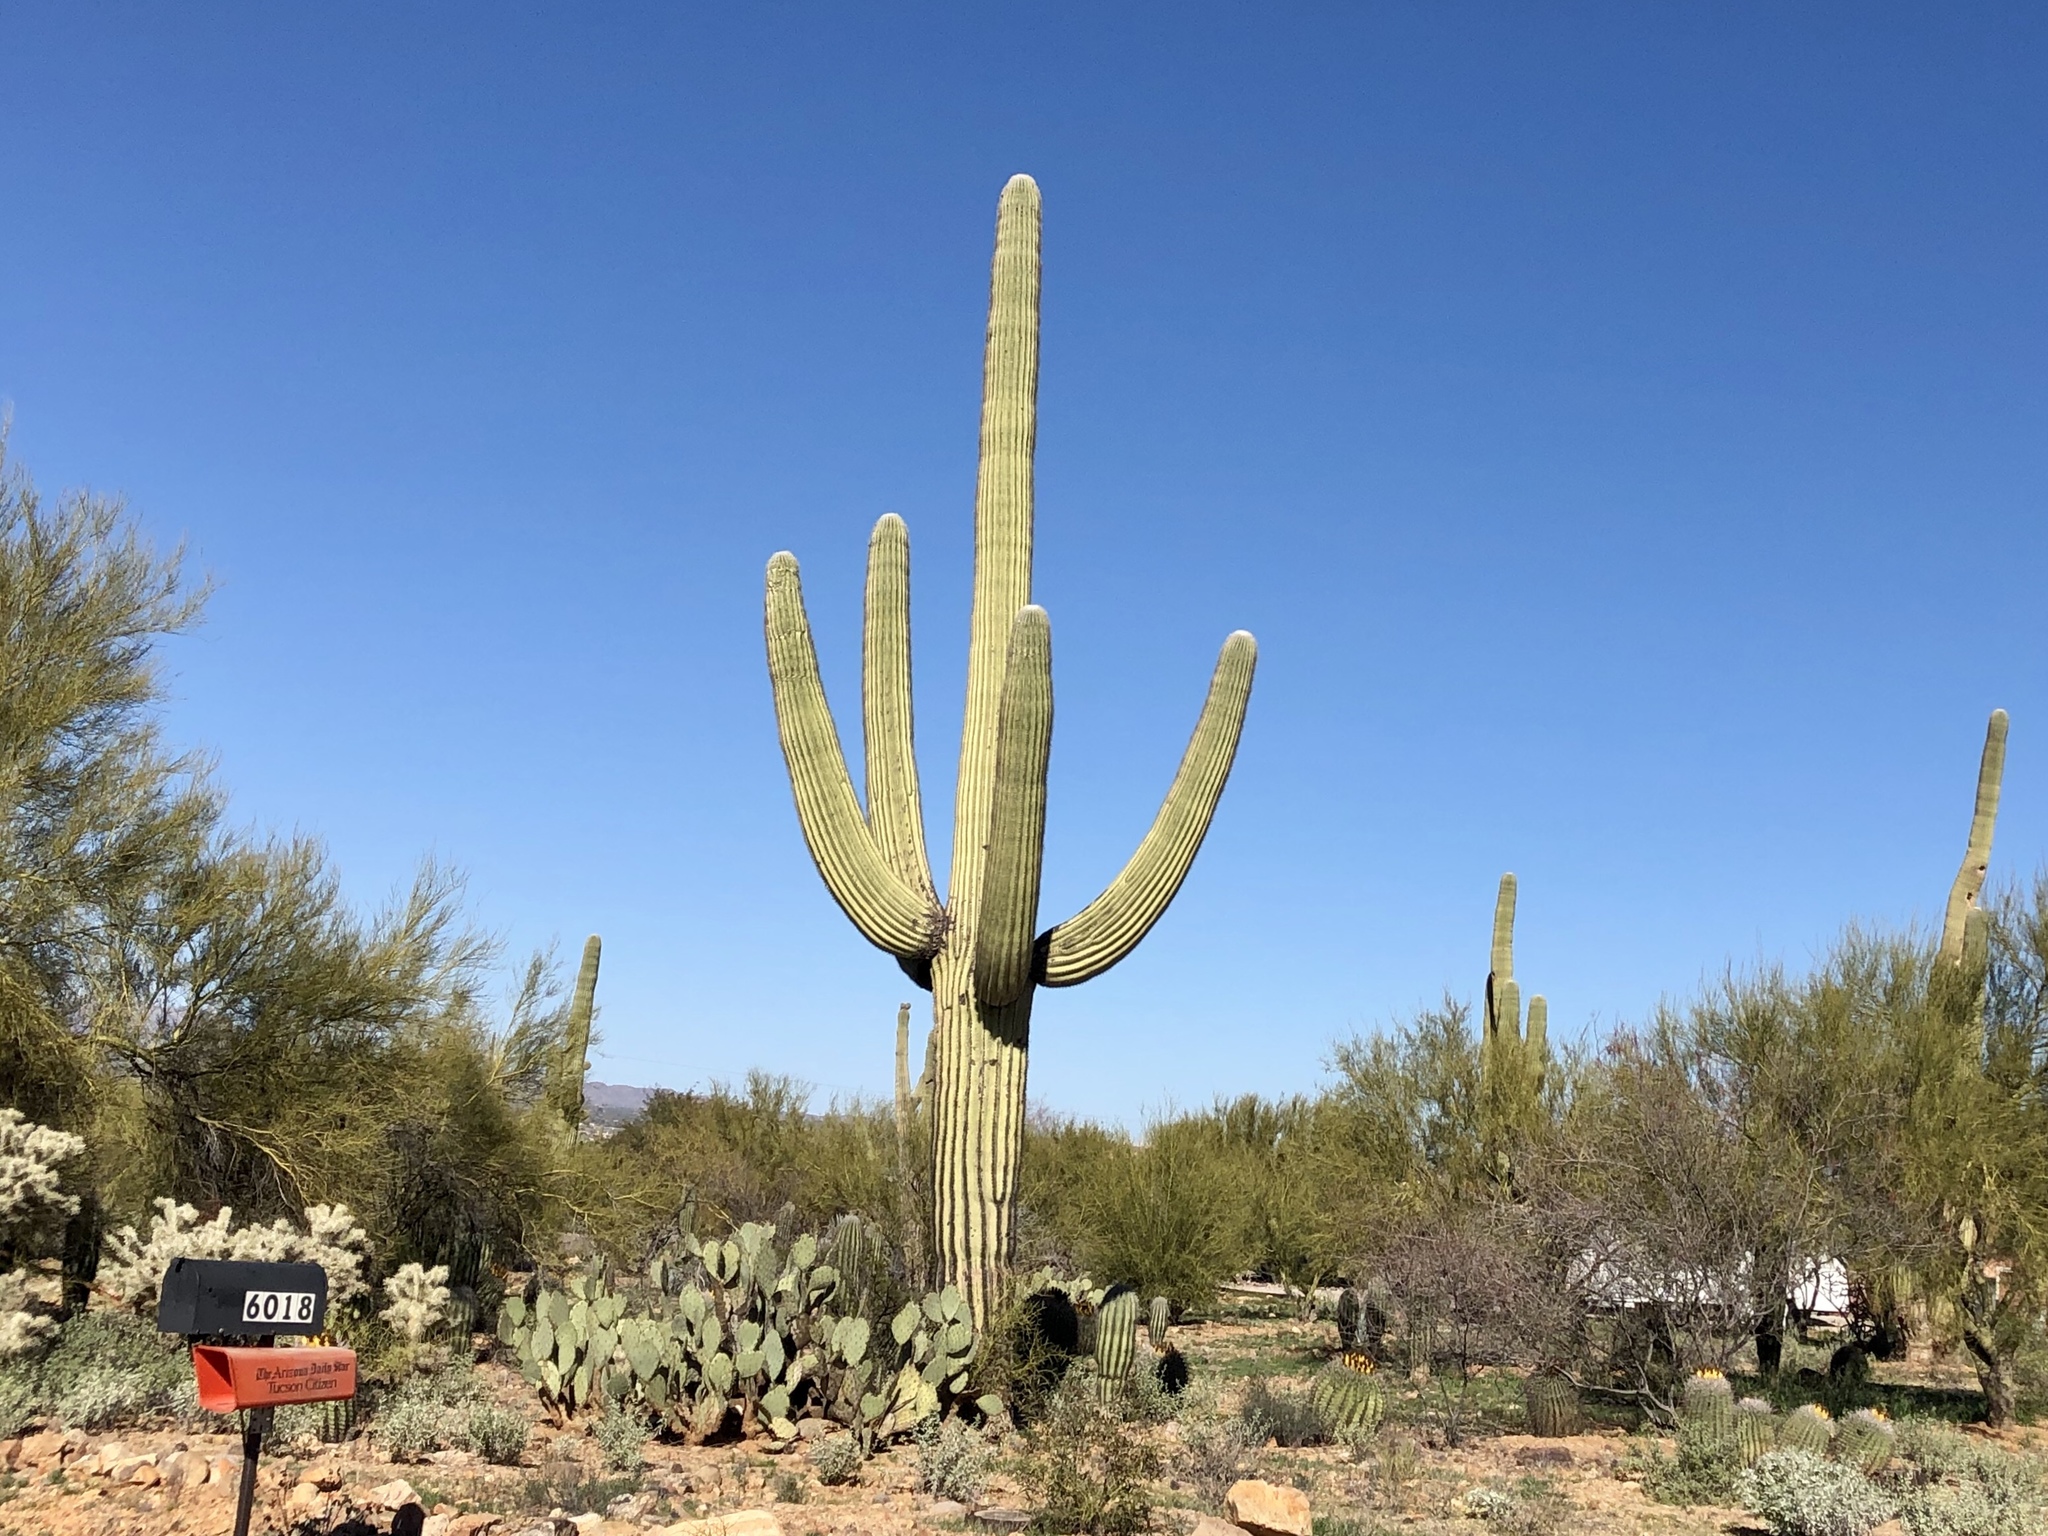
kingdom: Plantae
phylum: Tracheophyta
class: Magnoliopsida
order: Caryophyllales
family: Cactaceae
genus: Carnegiea
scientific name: Carnegiea gigantea
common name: Saguaro
